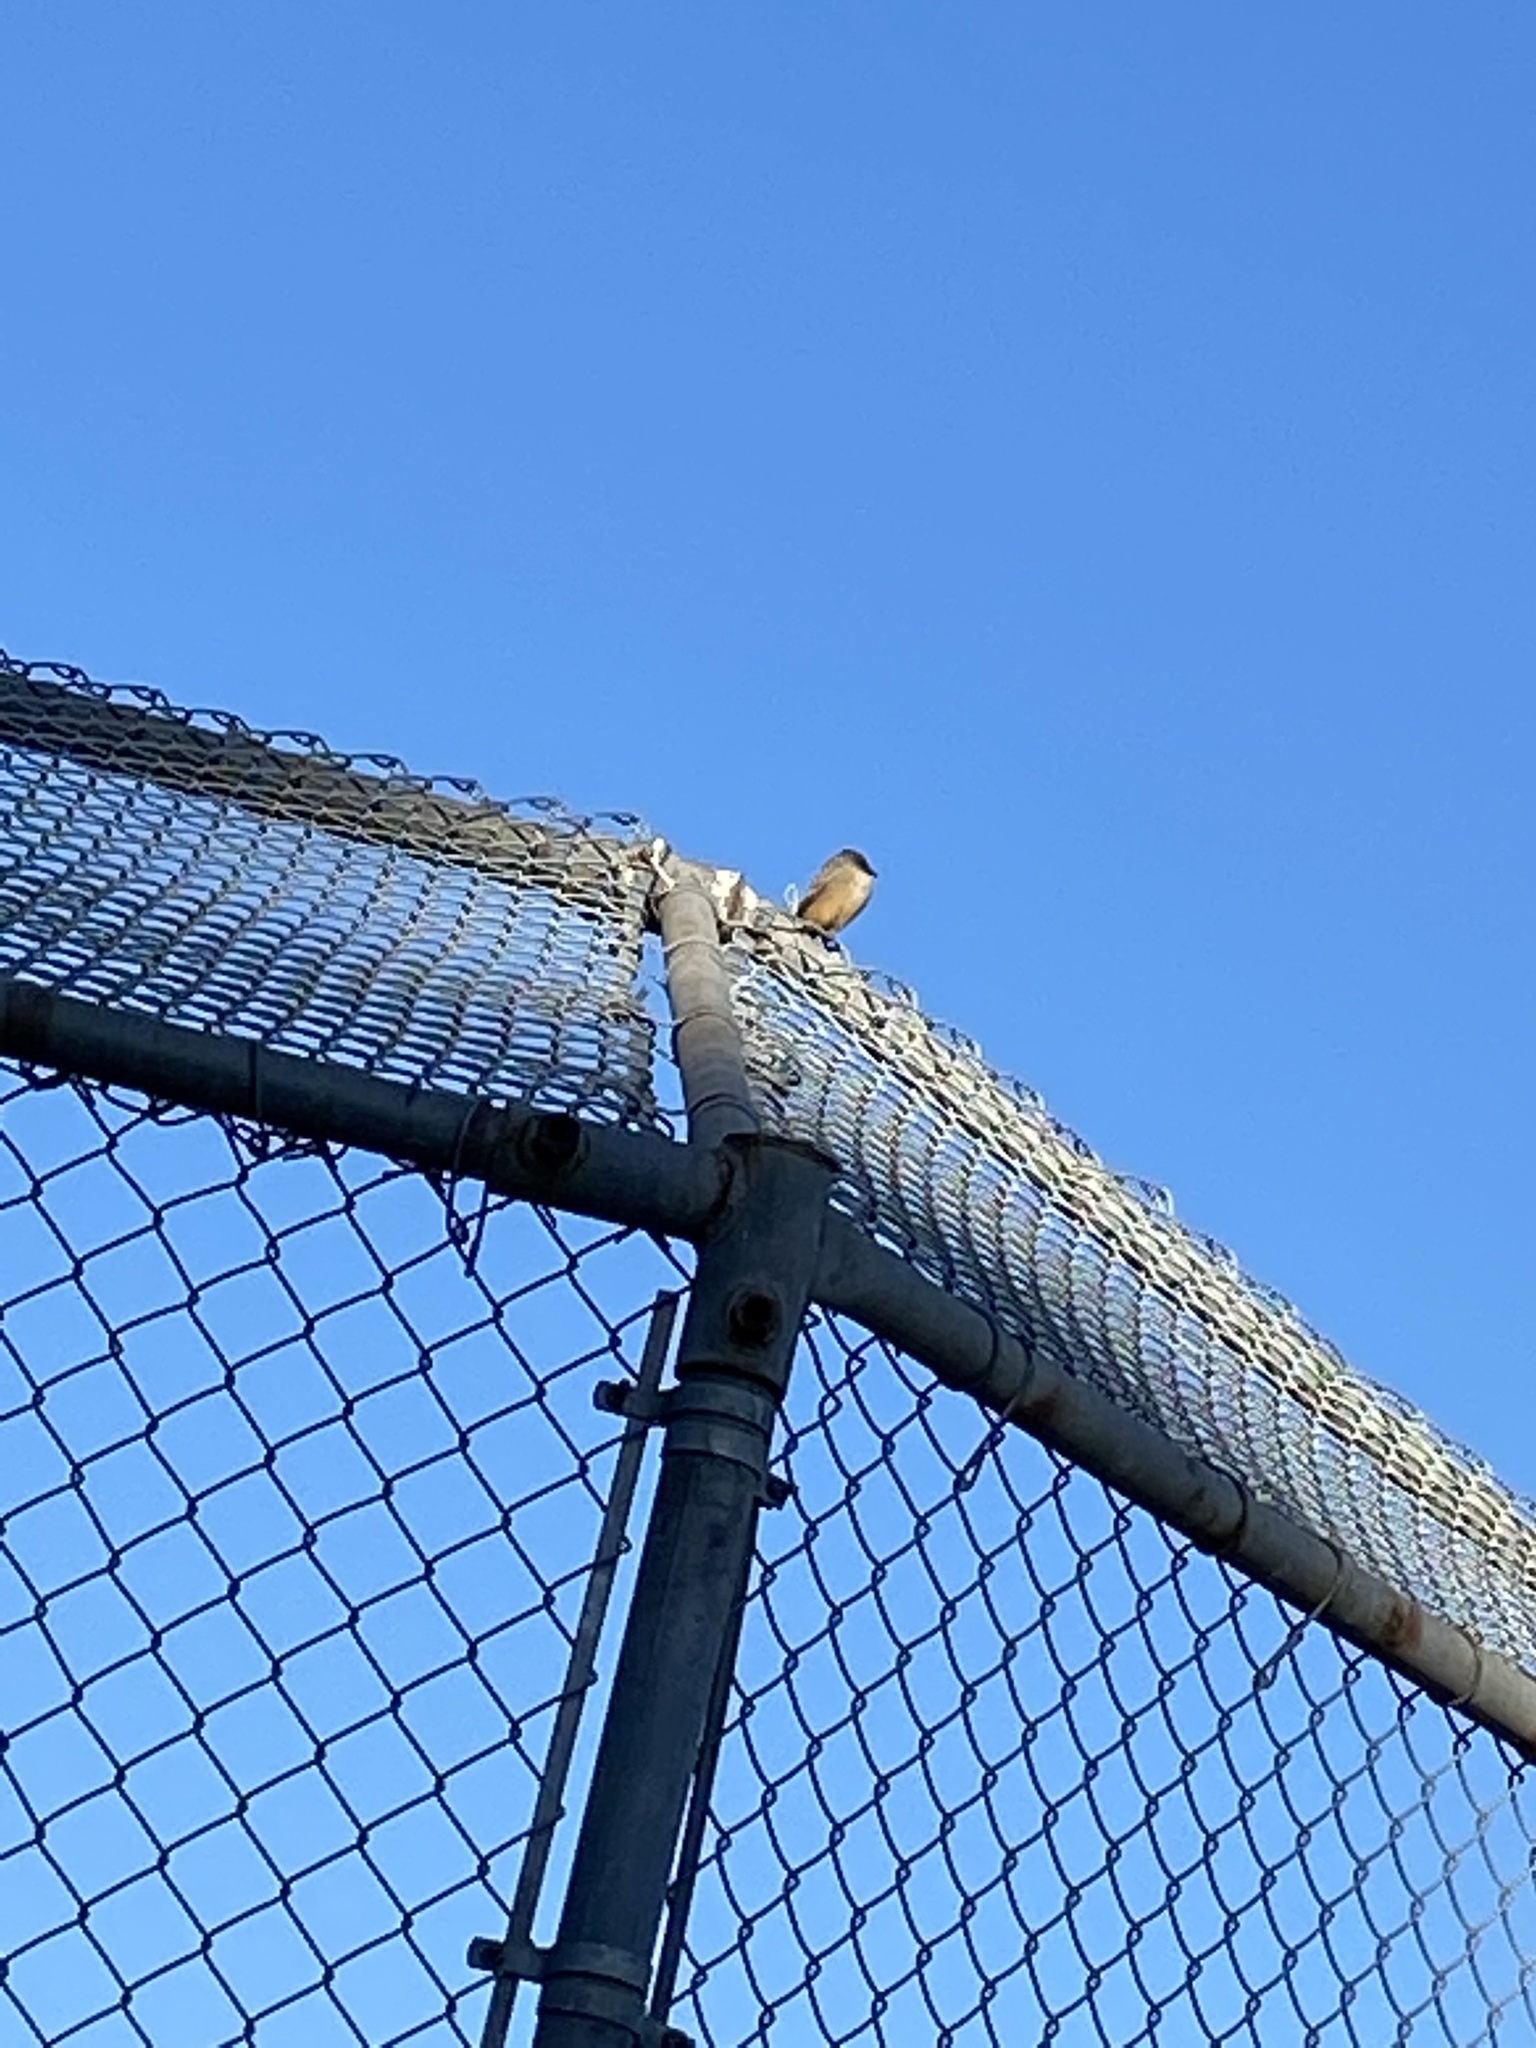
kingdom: Animalia
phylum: Chordata
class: Aves
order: Passeriformes
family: Tyrannidae
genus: Sayornis
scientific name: Sayornis saya
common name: Say's phoebe
